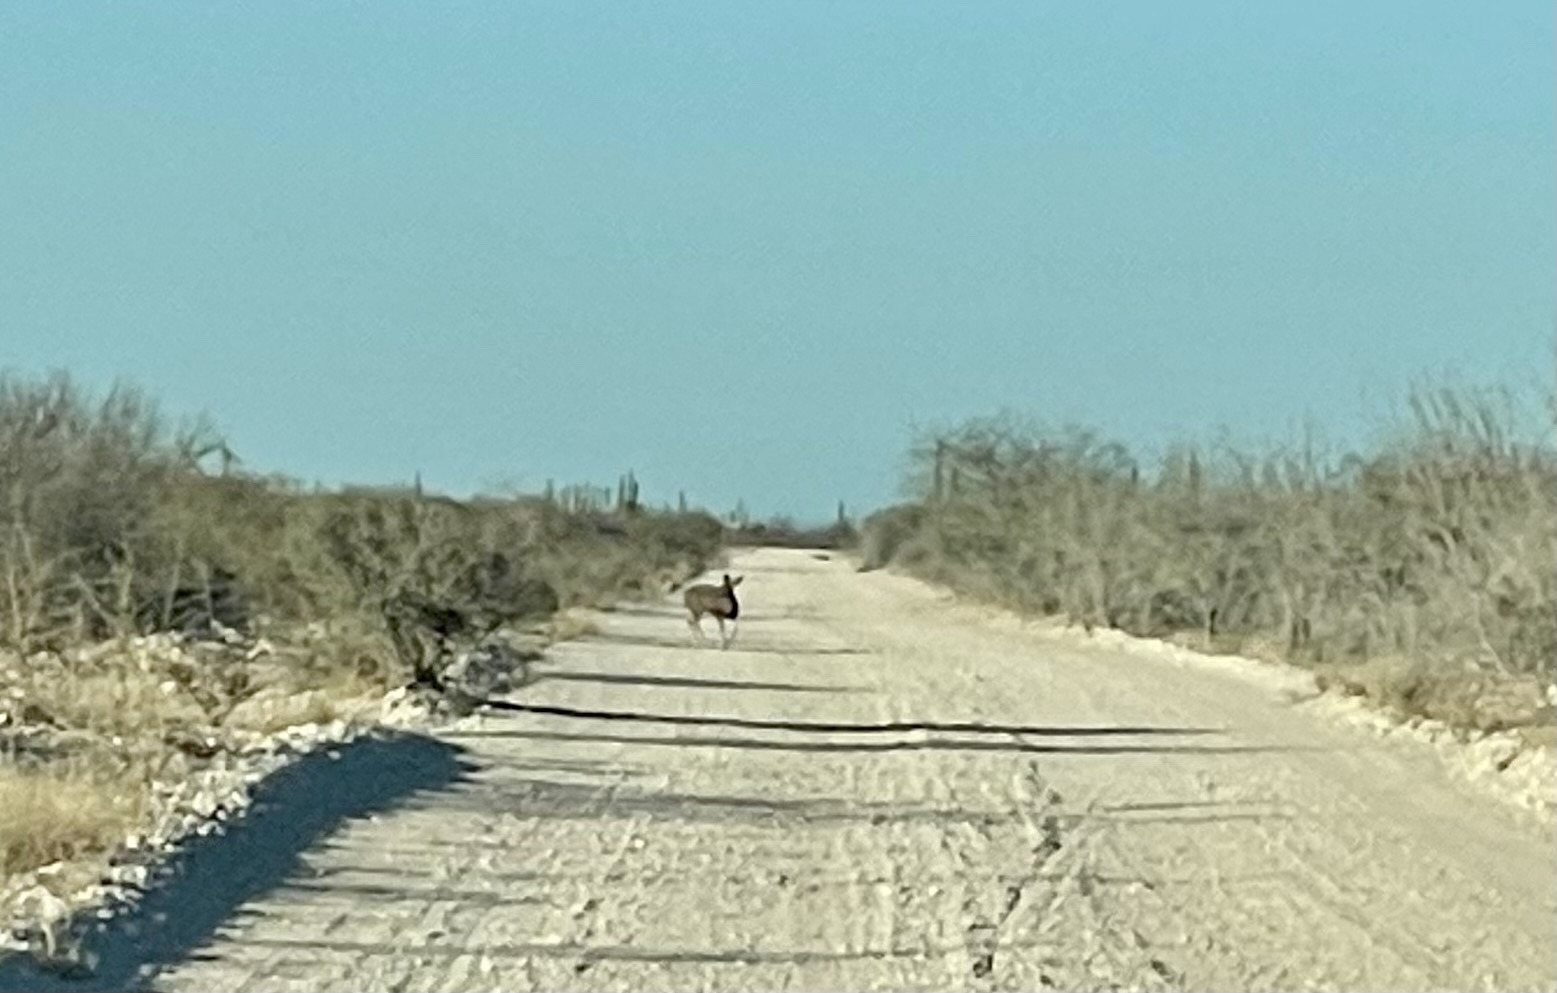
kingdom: Animalia
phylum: Chordata
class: Mammalia
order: Artiodactyla
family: Cervidae
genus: Odocoileus
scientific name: Odocoileus hemionus
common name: Mule deer
